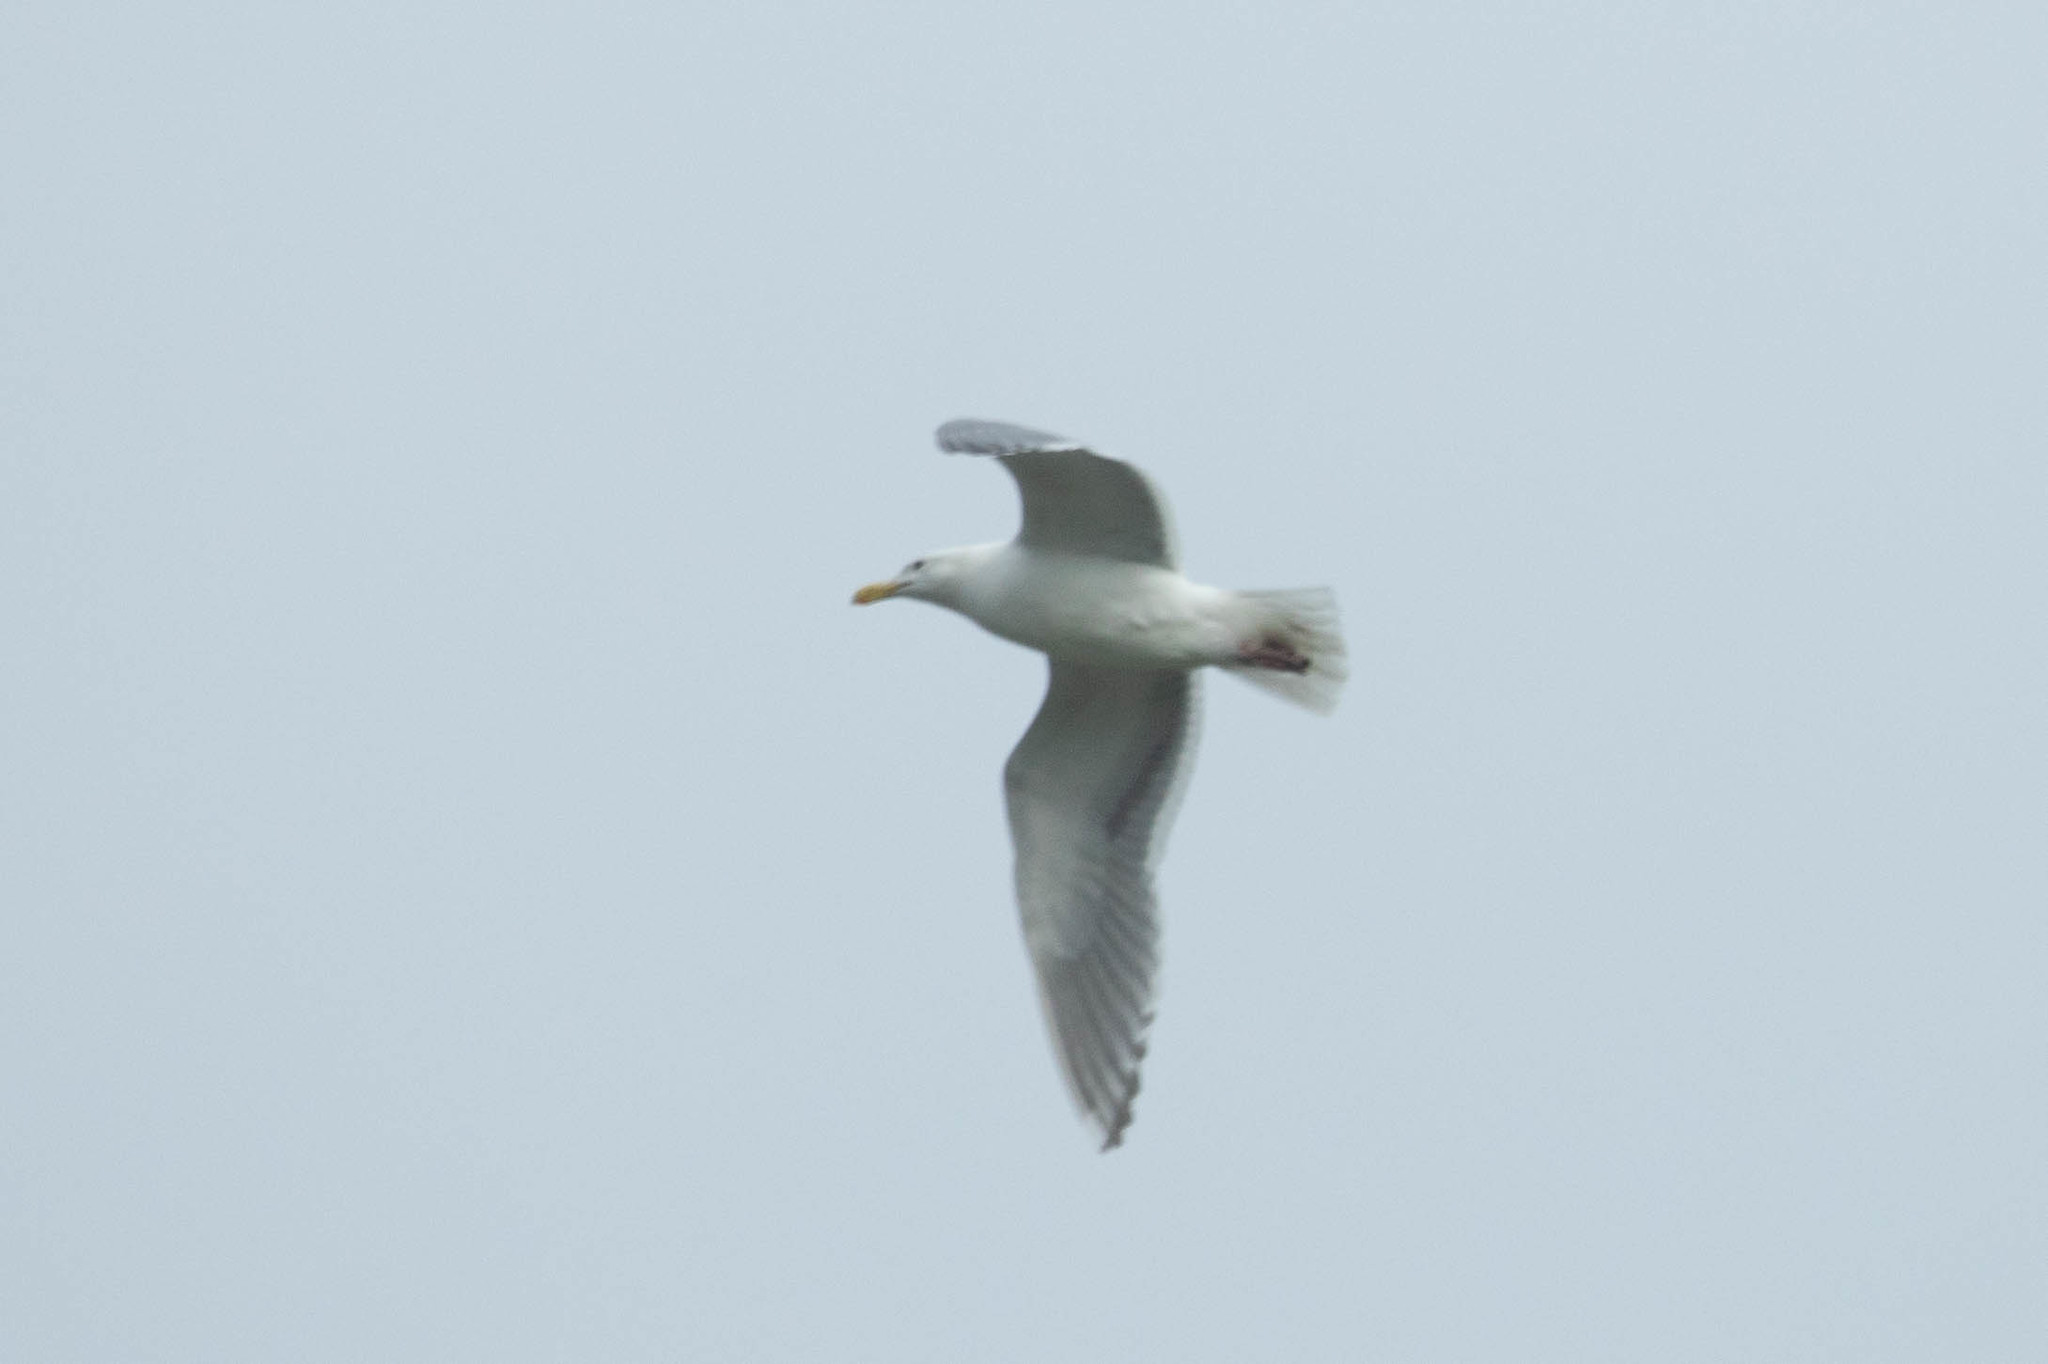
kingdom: Animalia
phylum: Chordata
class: Aves
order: Charadriiformes
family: Laridae
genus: Larus
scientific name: Larus
